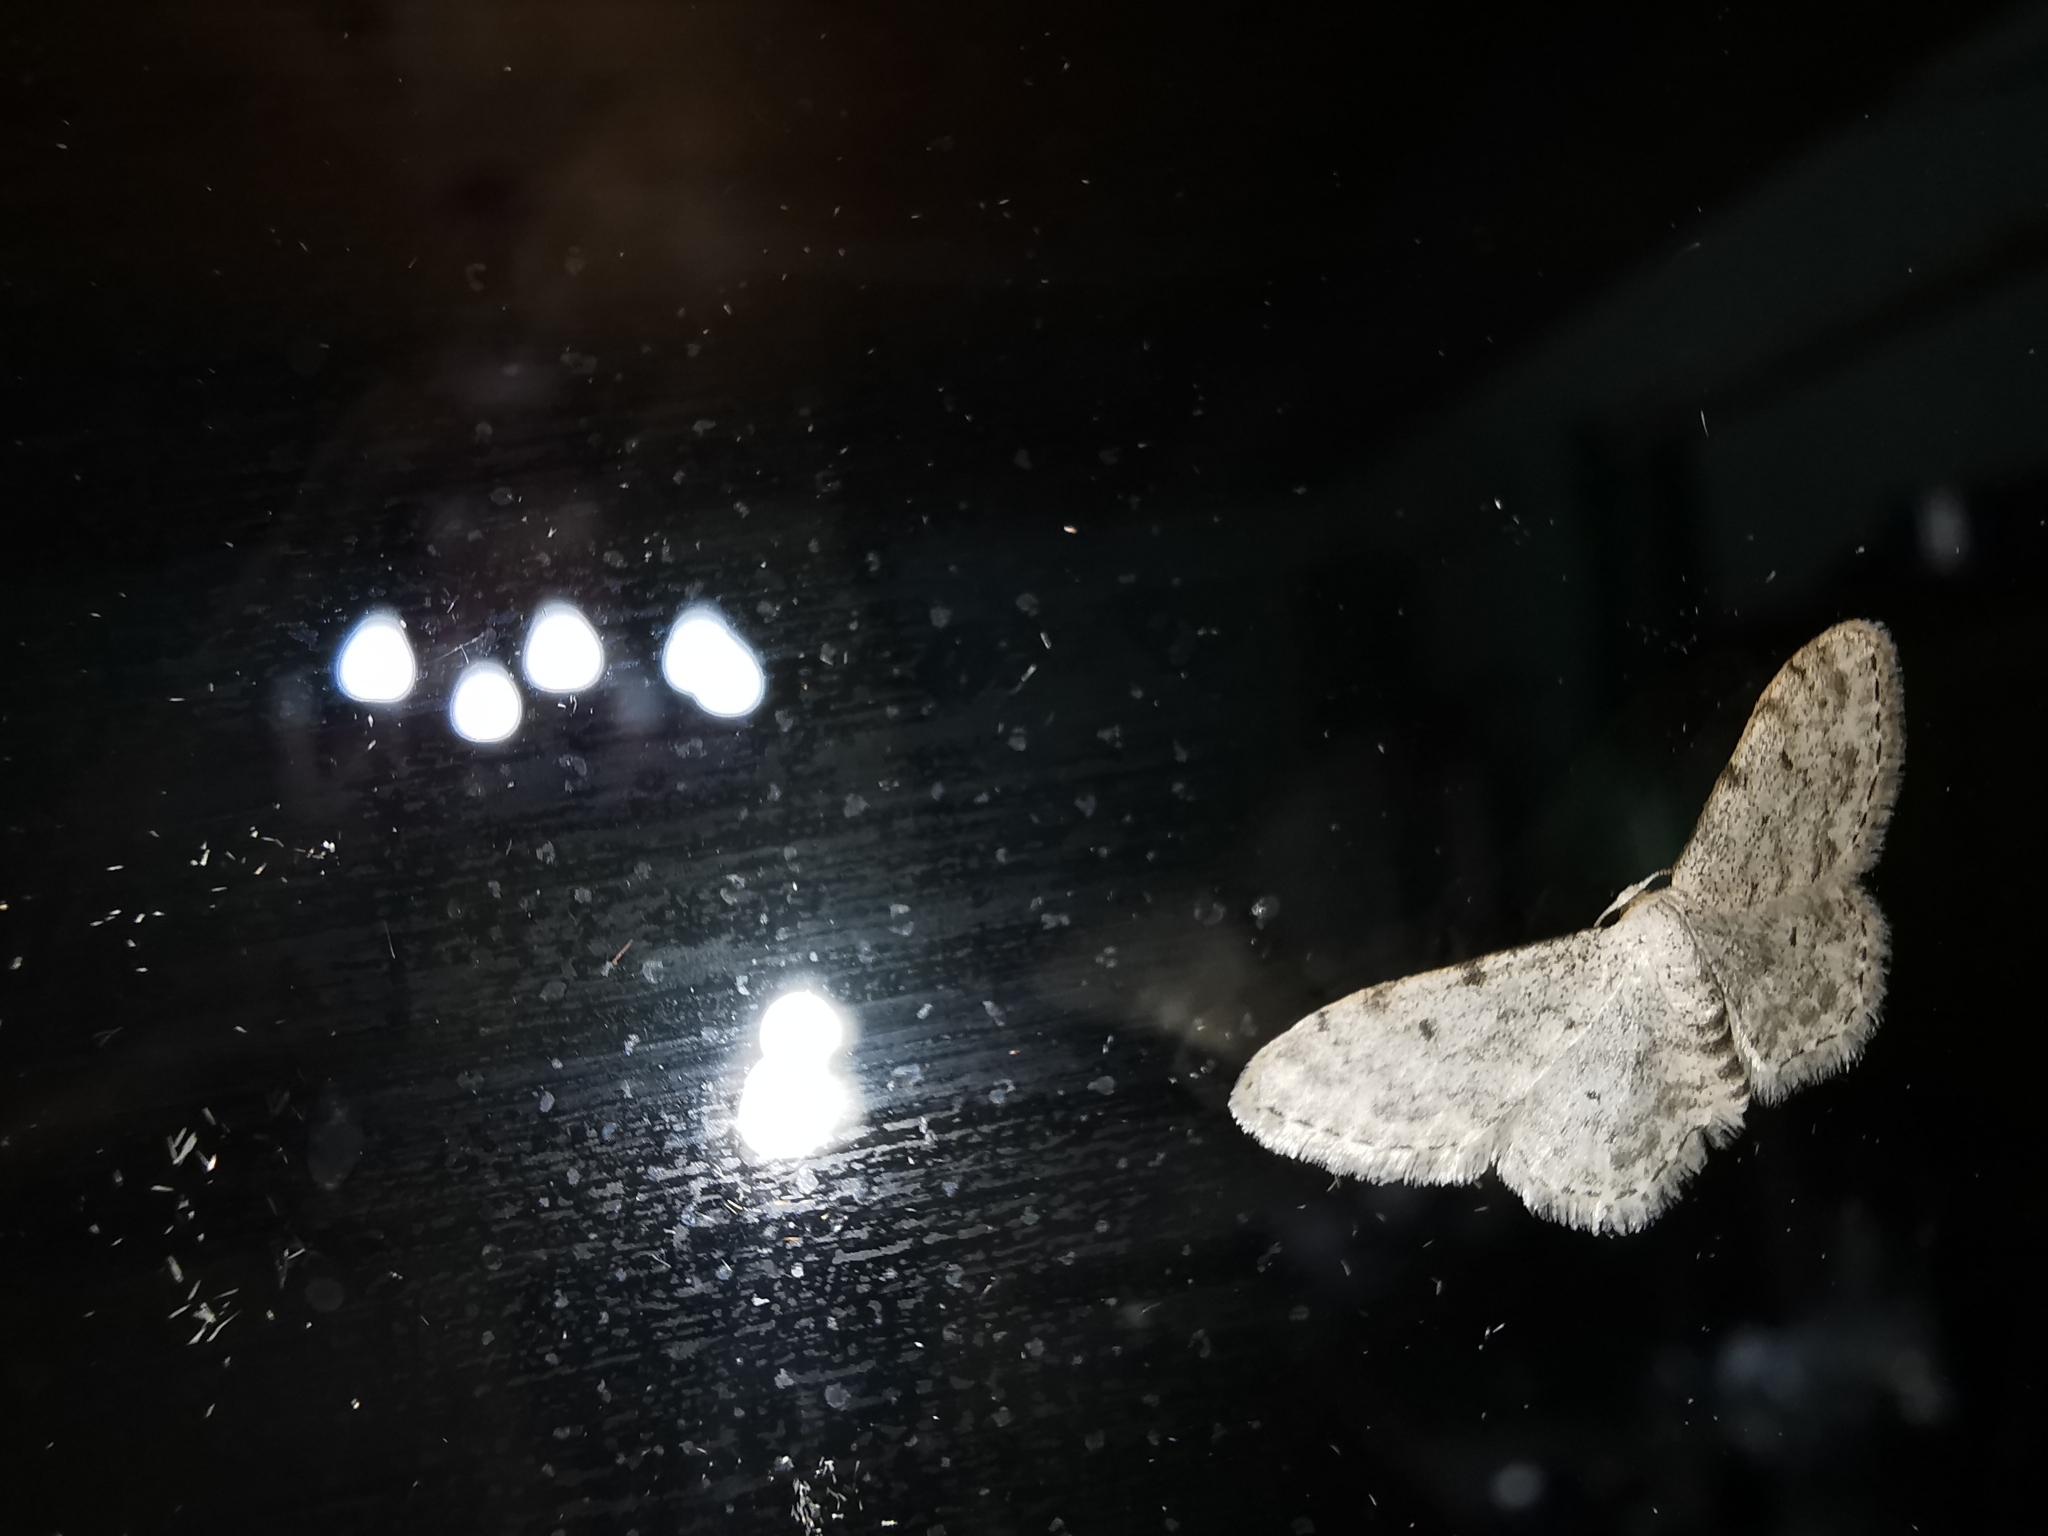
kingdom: Animalia
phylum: Arthropoda
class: Insecta
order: Lepidoptera
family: Geometridae
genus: Idaea
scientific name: Idaea camparia
